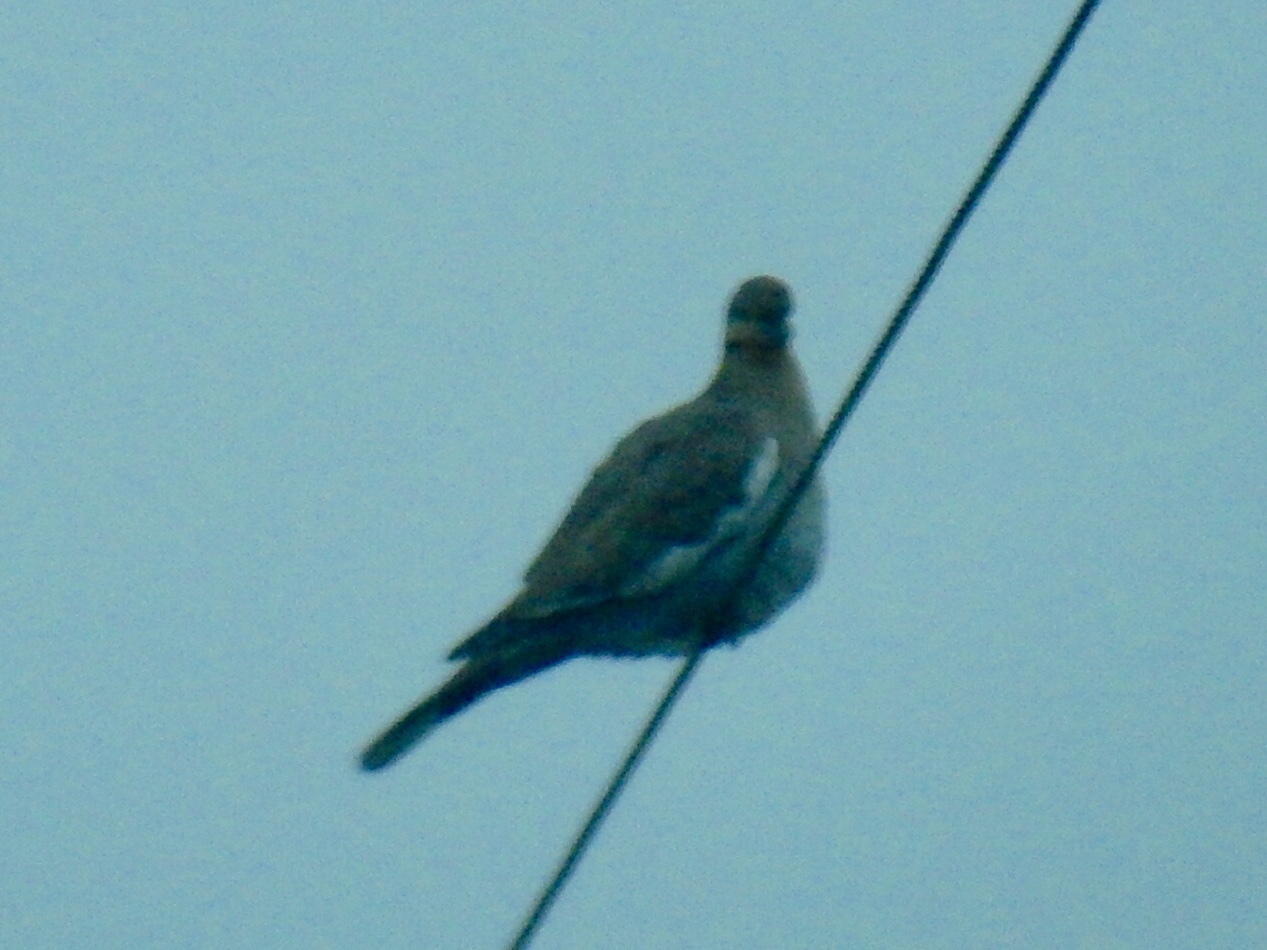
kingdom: Animalia
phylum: Chordata
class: Aves
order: Columbiformes
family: Columbidae
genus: Zenaida
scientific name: Zenaida asiatica
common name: White-winged dove
